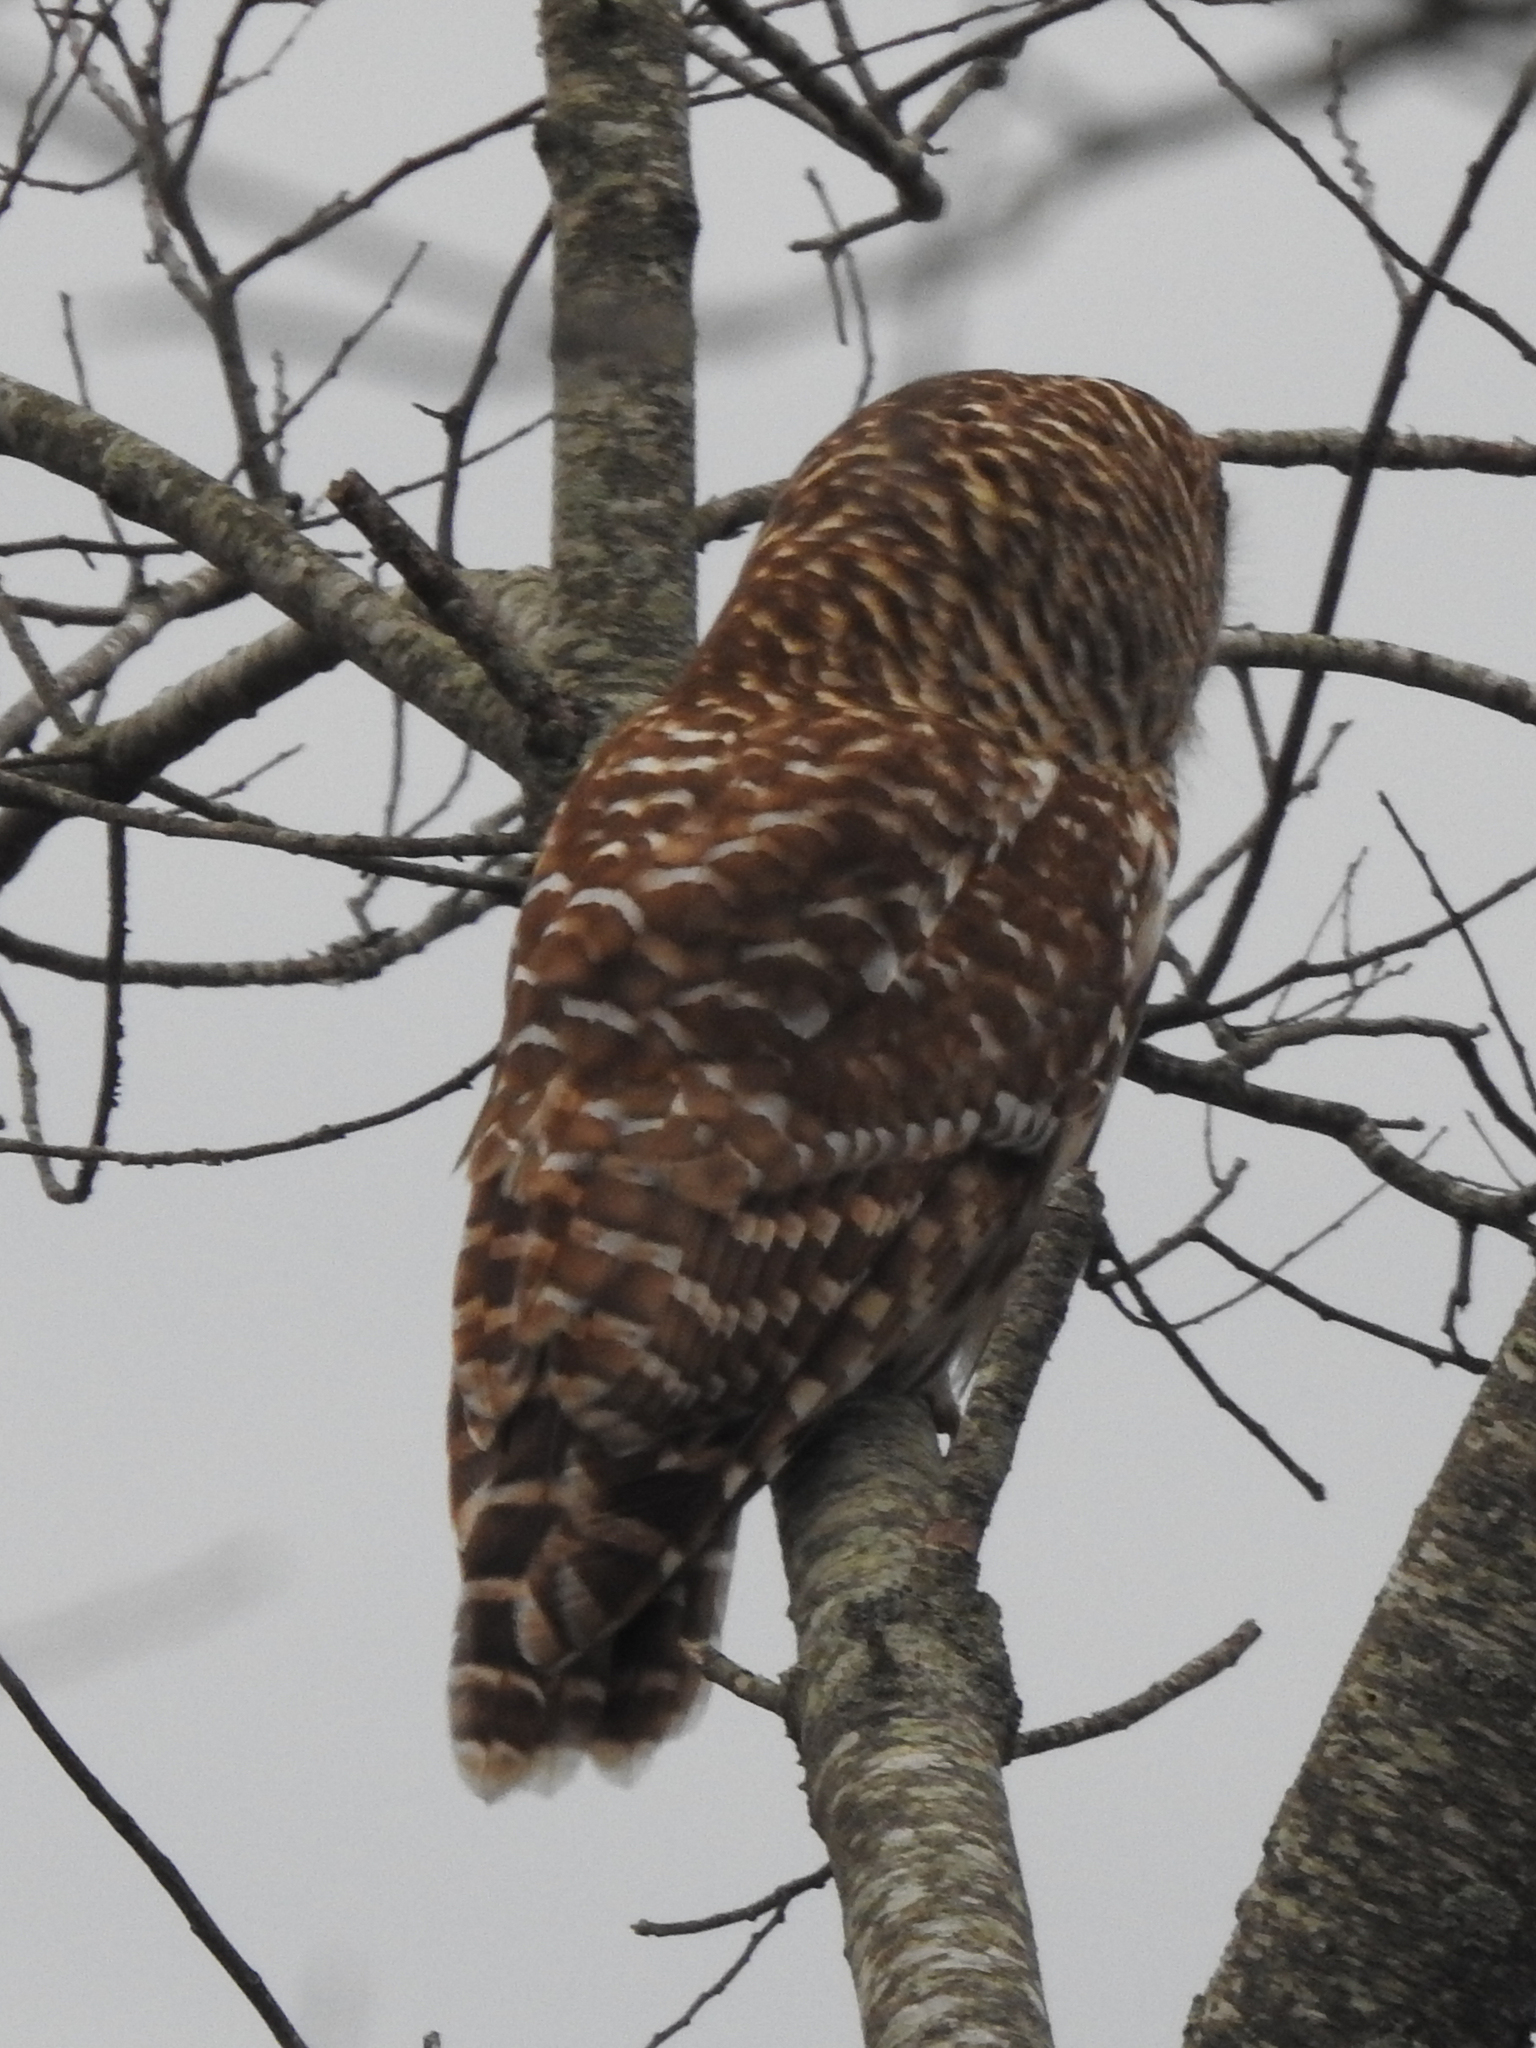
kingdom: Animalia
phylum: Chordata
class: Aves
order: Strigiformes
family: Strigidae
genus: Strix
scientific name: Strix varia
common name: Barred owl
